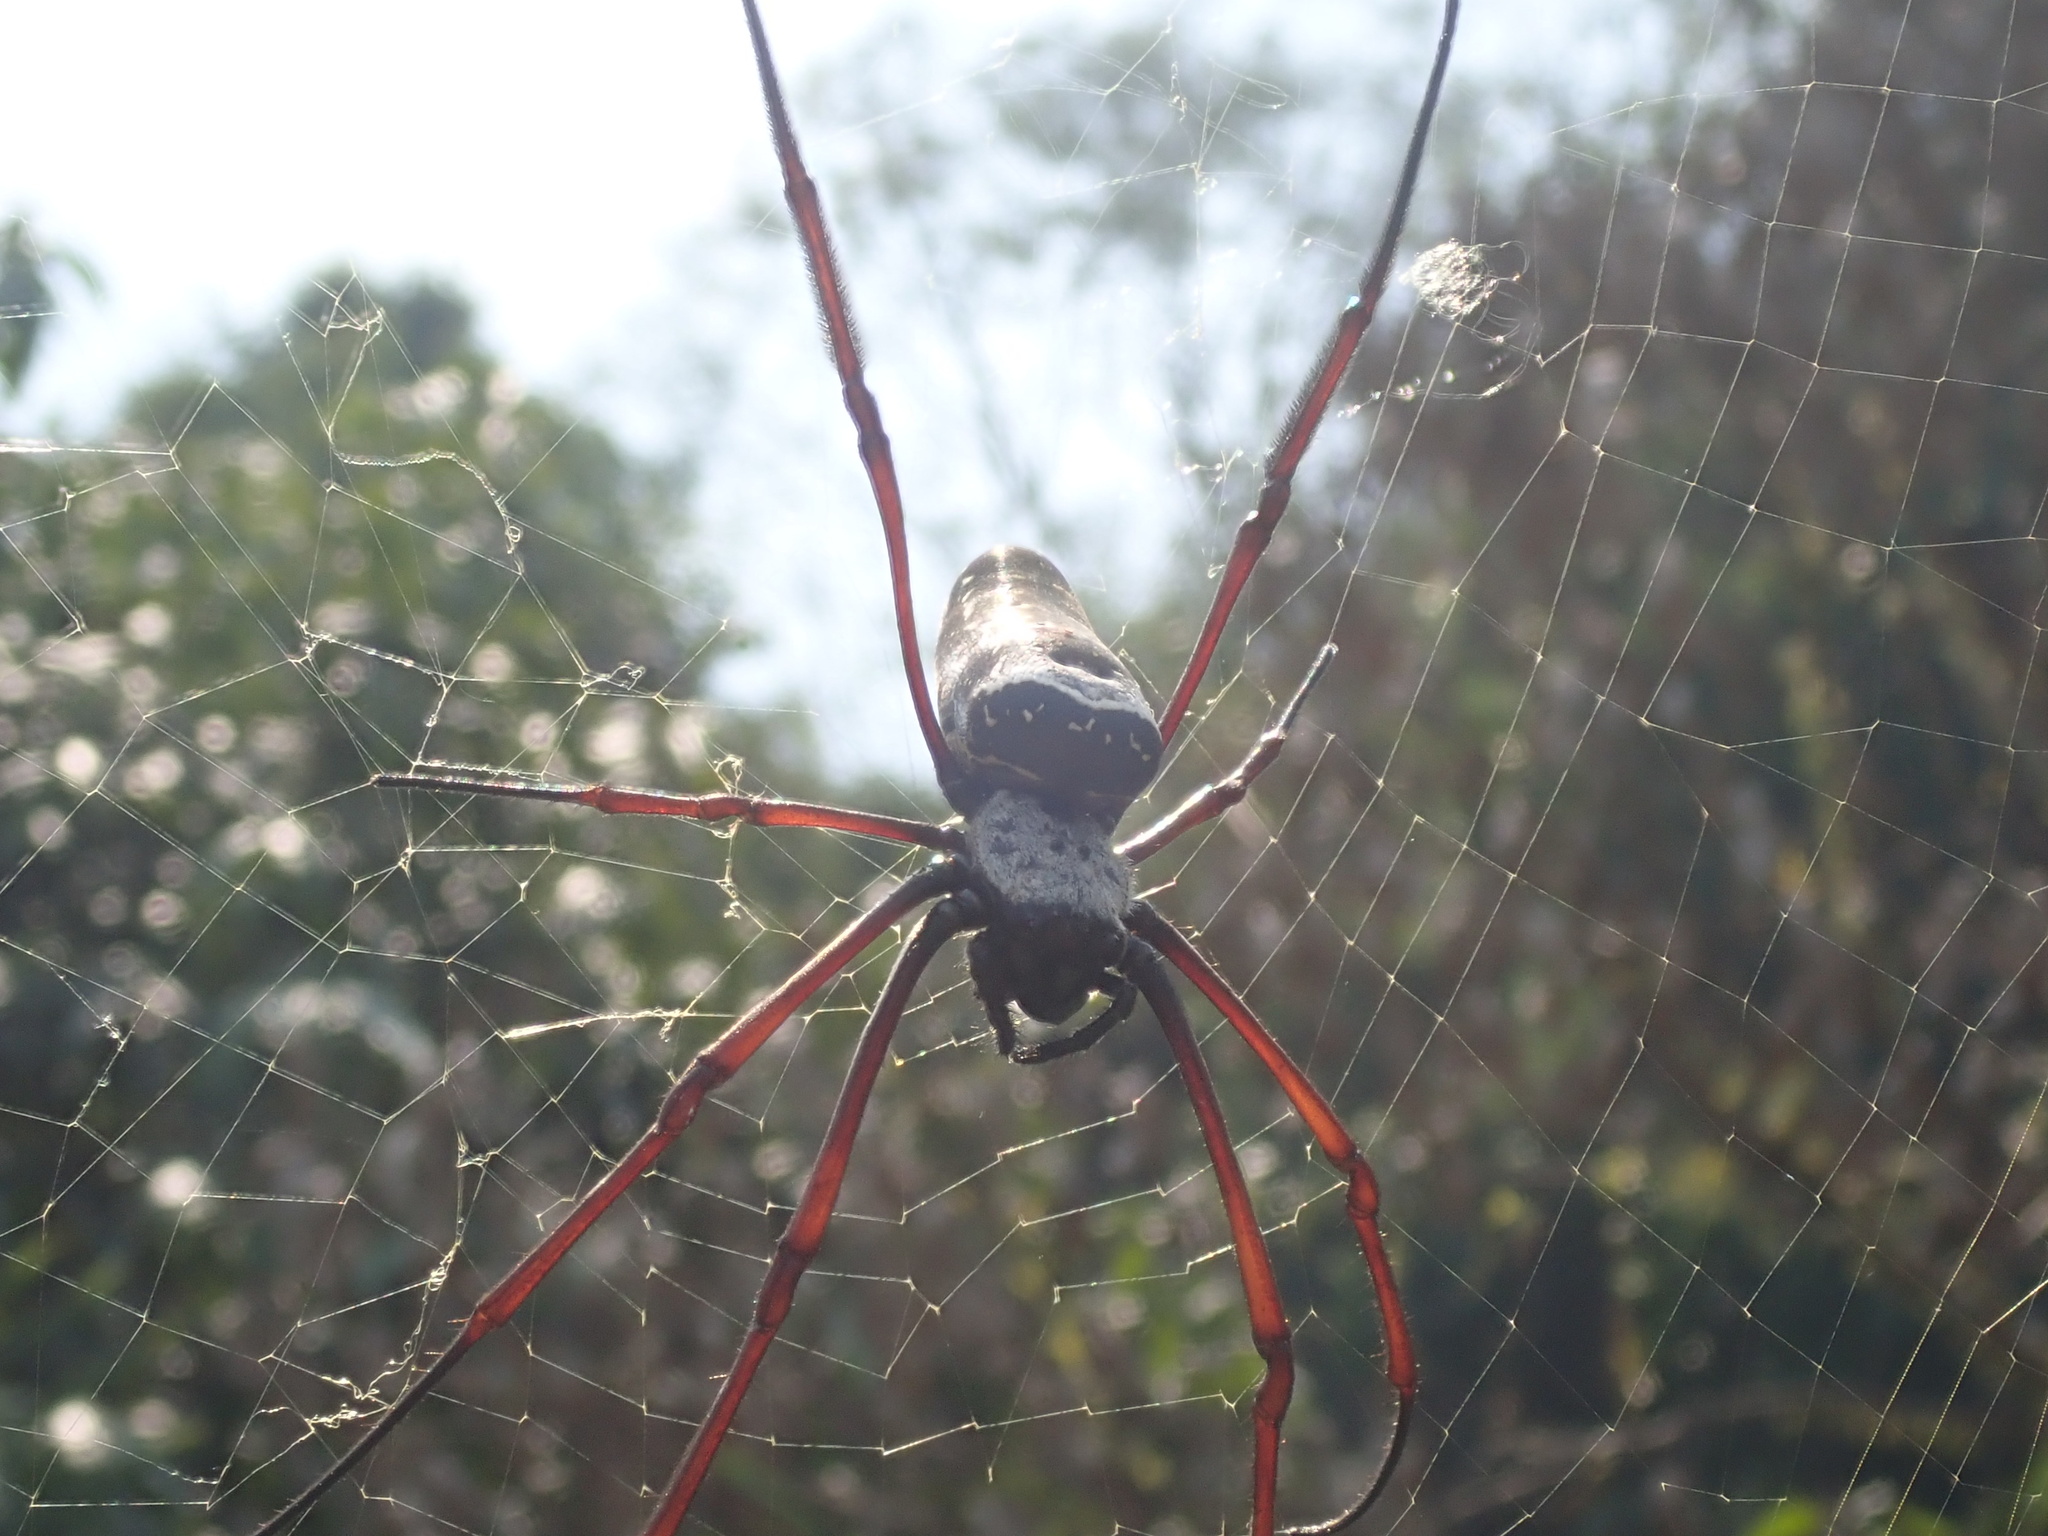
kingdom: Animalia
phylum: Arthropoda
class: Arachnida
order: Araneae
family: Araneidae
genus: Nephila
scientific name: Nephila kuhli
